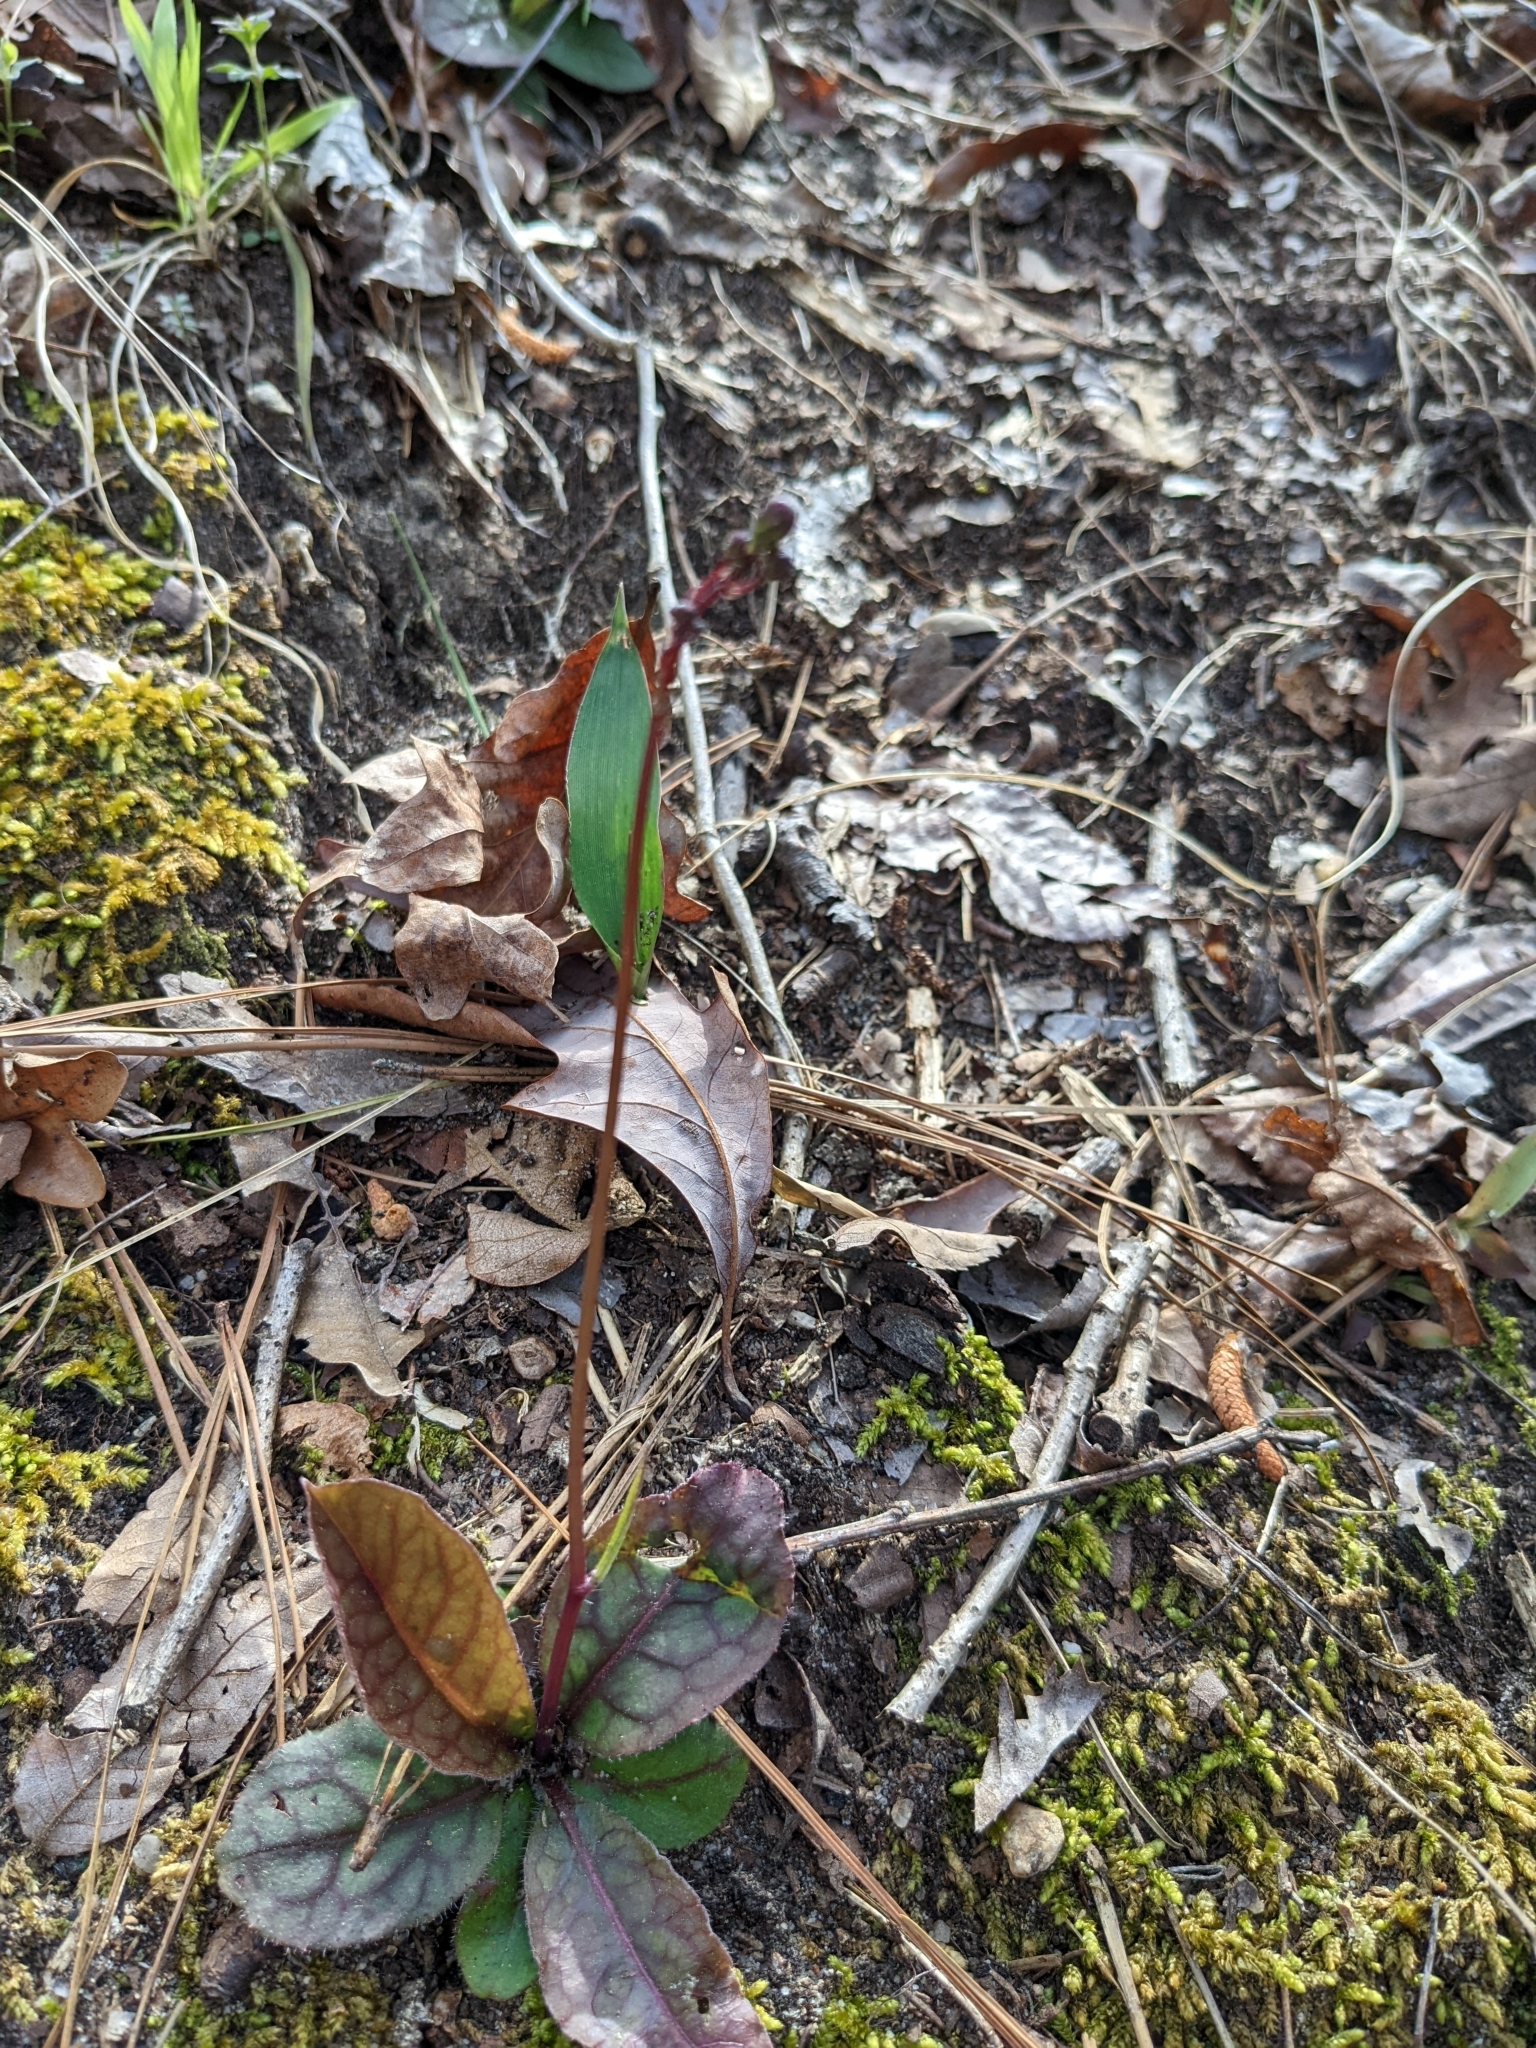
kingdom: Plantae
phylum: Tracheophyta
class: Magnoliopsida
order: Asterales
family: Asteraceae
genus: Hieracium
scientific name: Hieracium venosum
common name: Rattlesnake hawkweed
